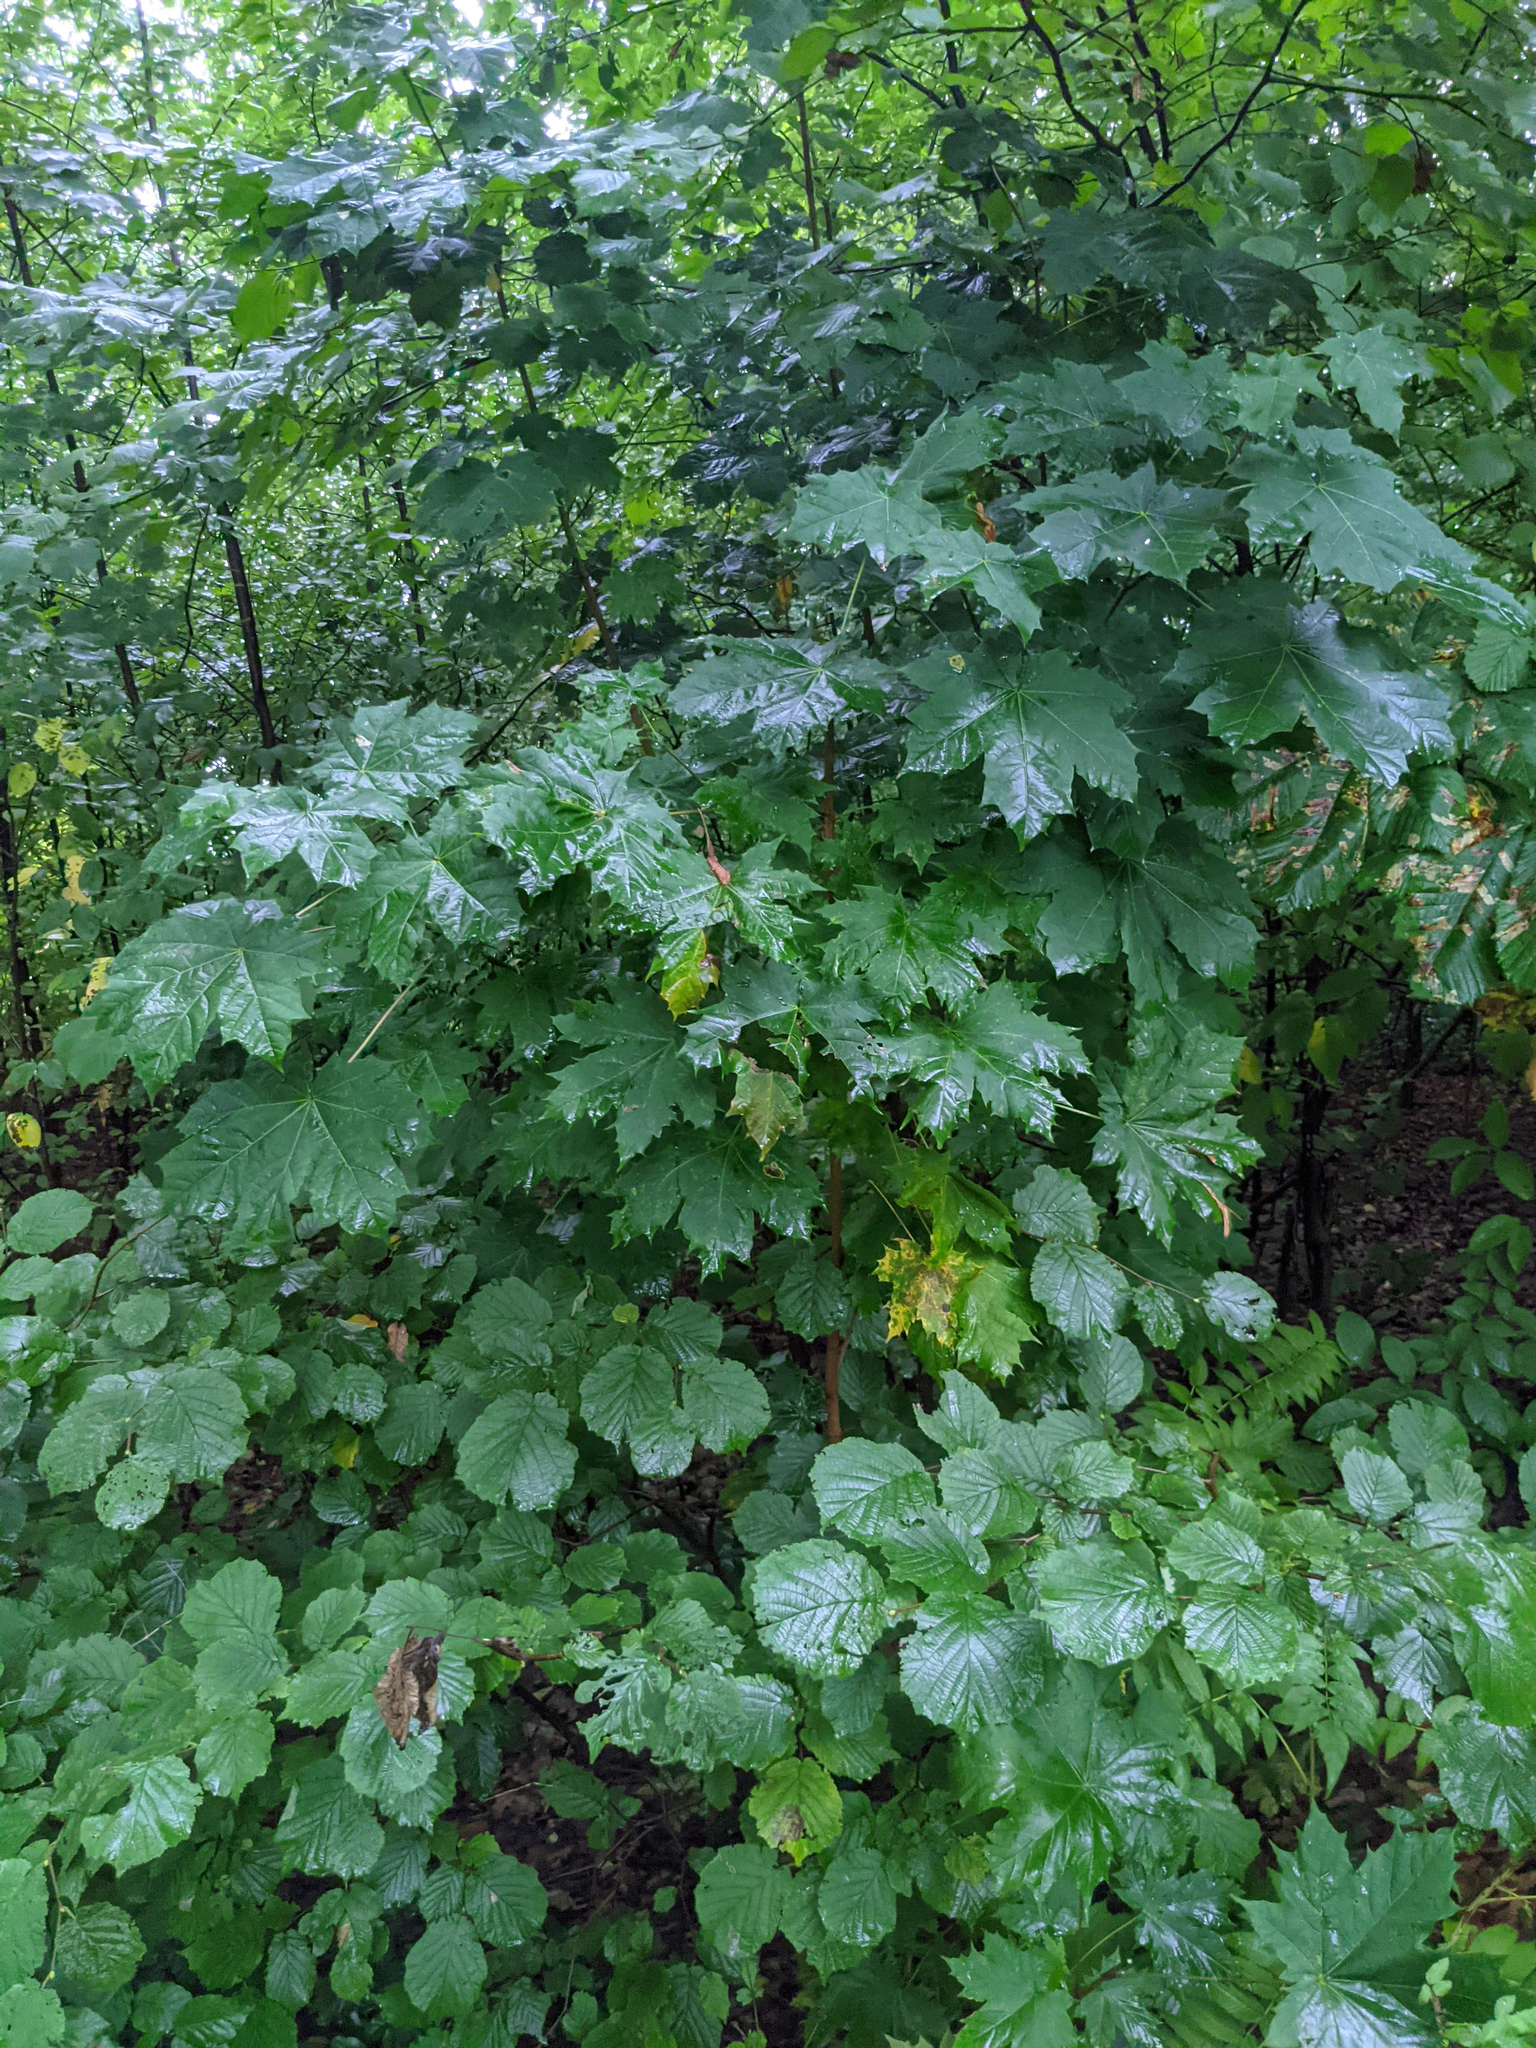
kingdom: Plantae
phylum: Tracheophyta
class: Magnoliopsida
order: Sapindales
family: Sapindaceae
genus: Acer
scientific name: Acer platanoides
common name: Norway maple
